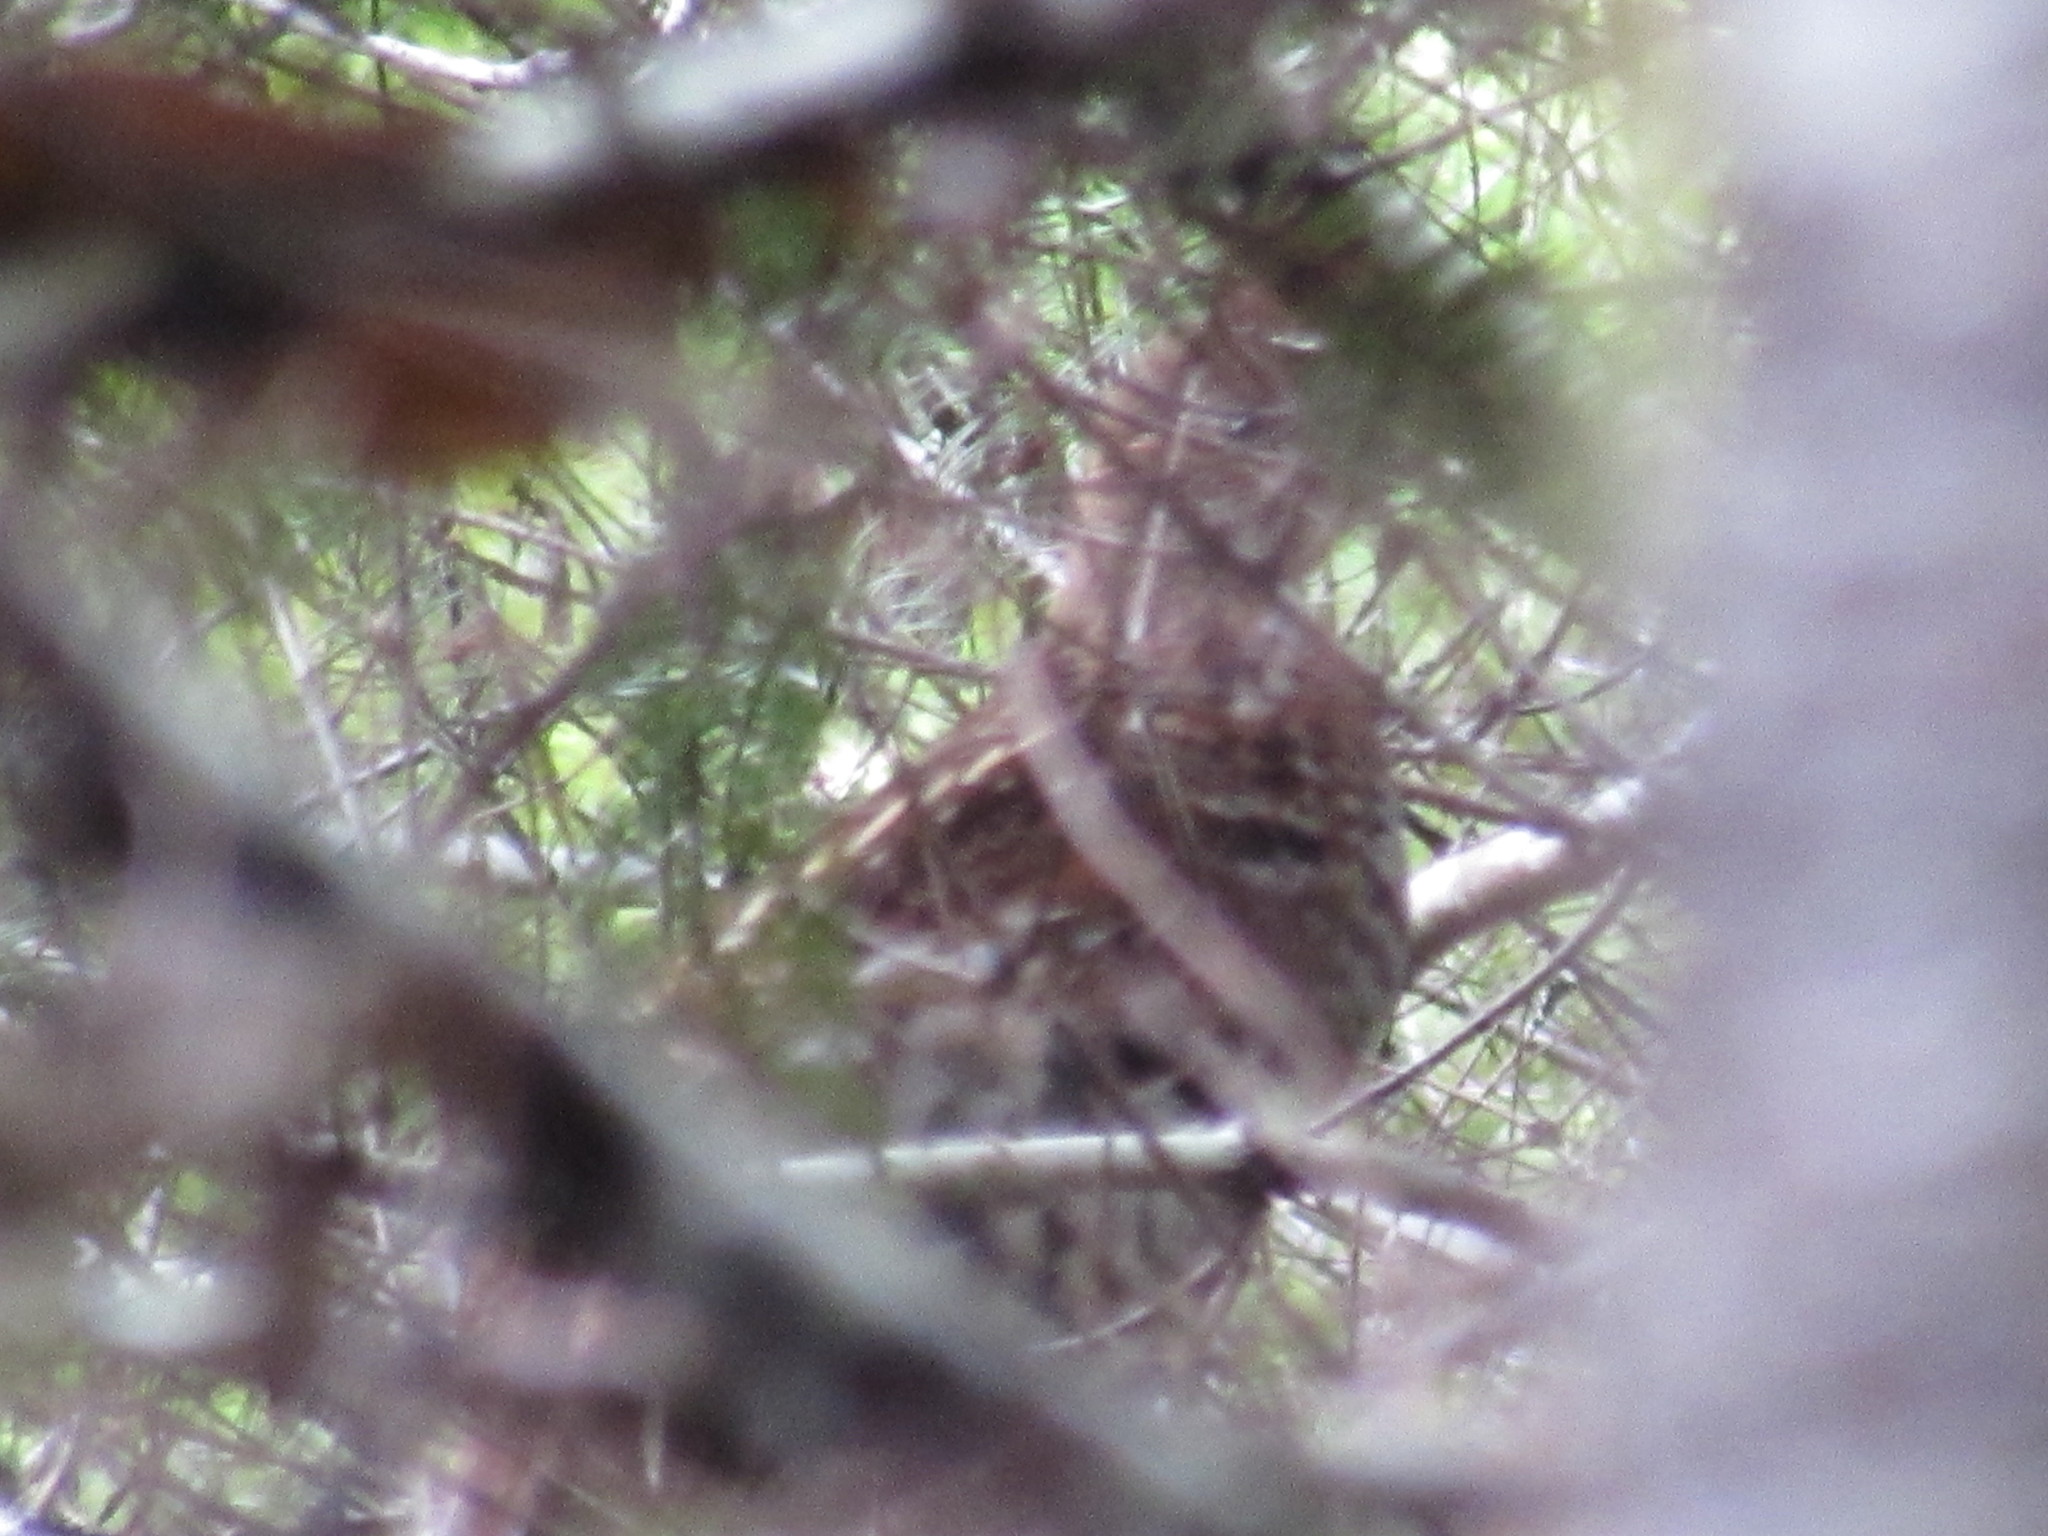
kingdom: Animalia
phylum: Chordata
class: Aves
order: Galliformes
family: Phasianidae
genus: Bonasa
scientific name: Bonasa umbellus
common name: Ruffed grouse
